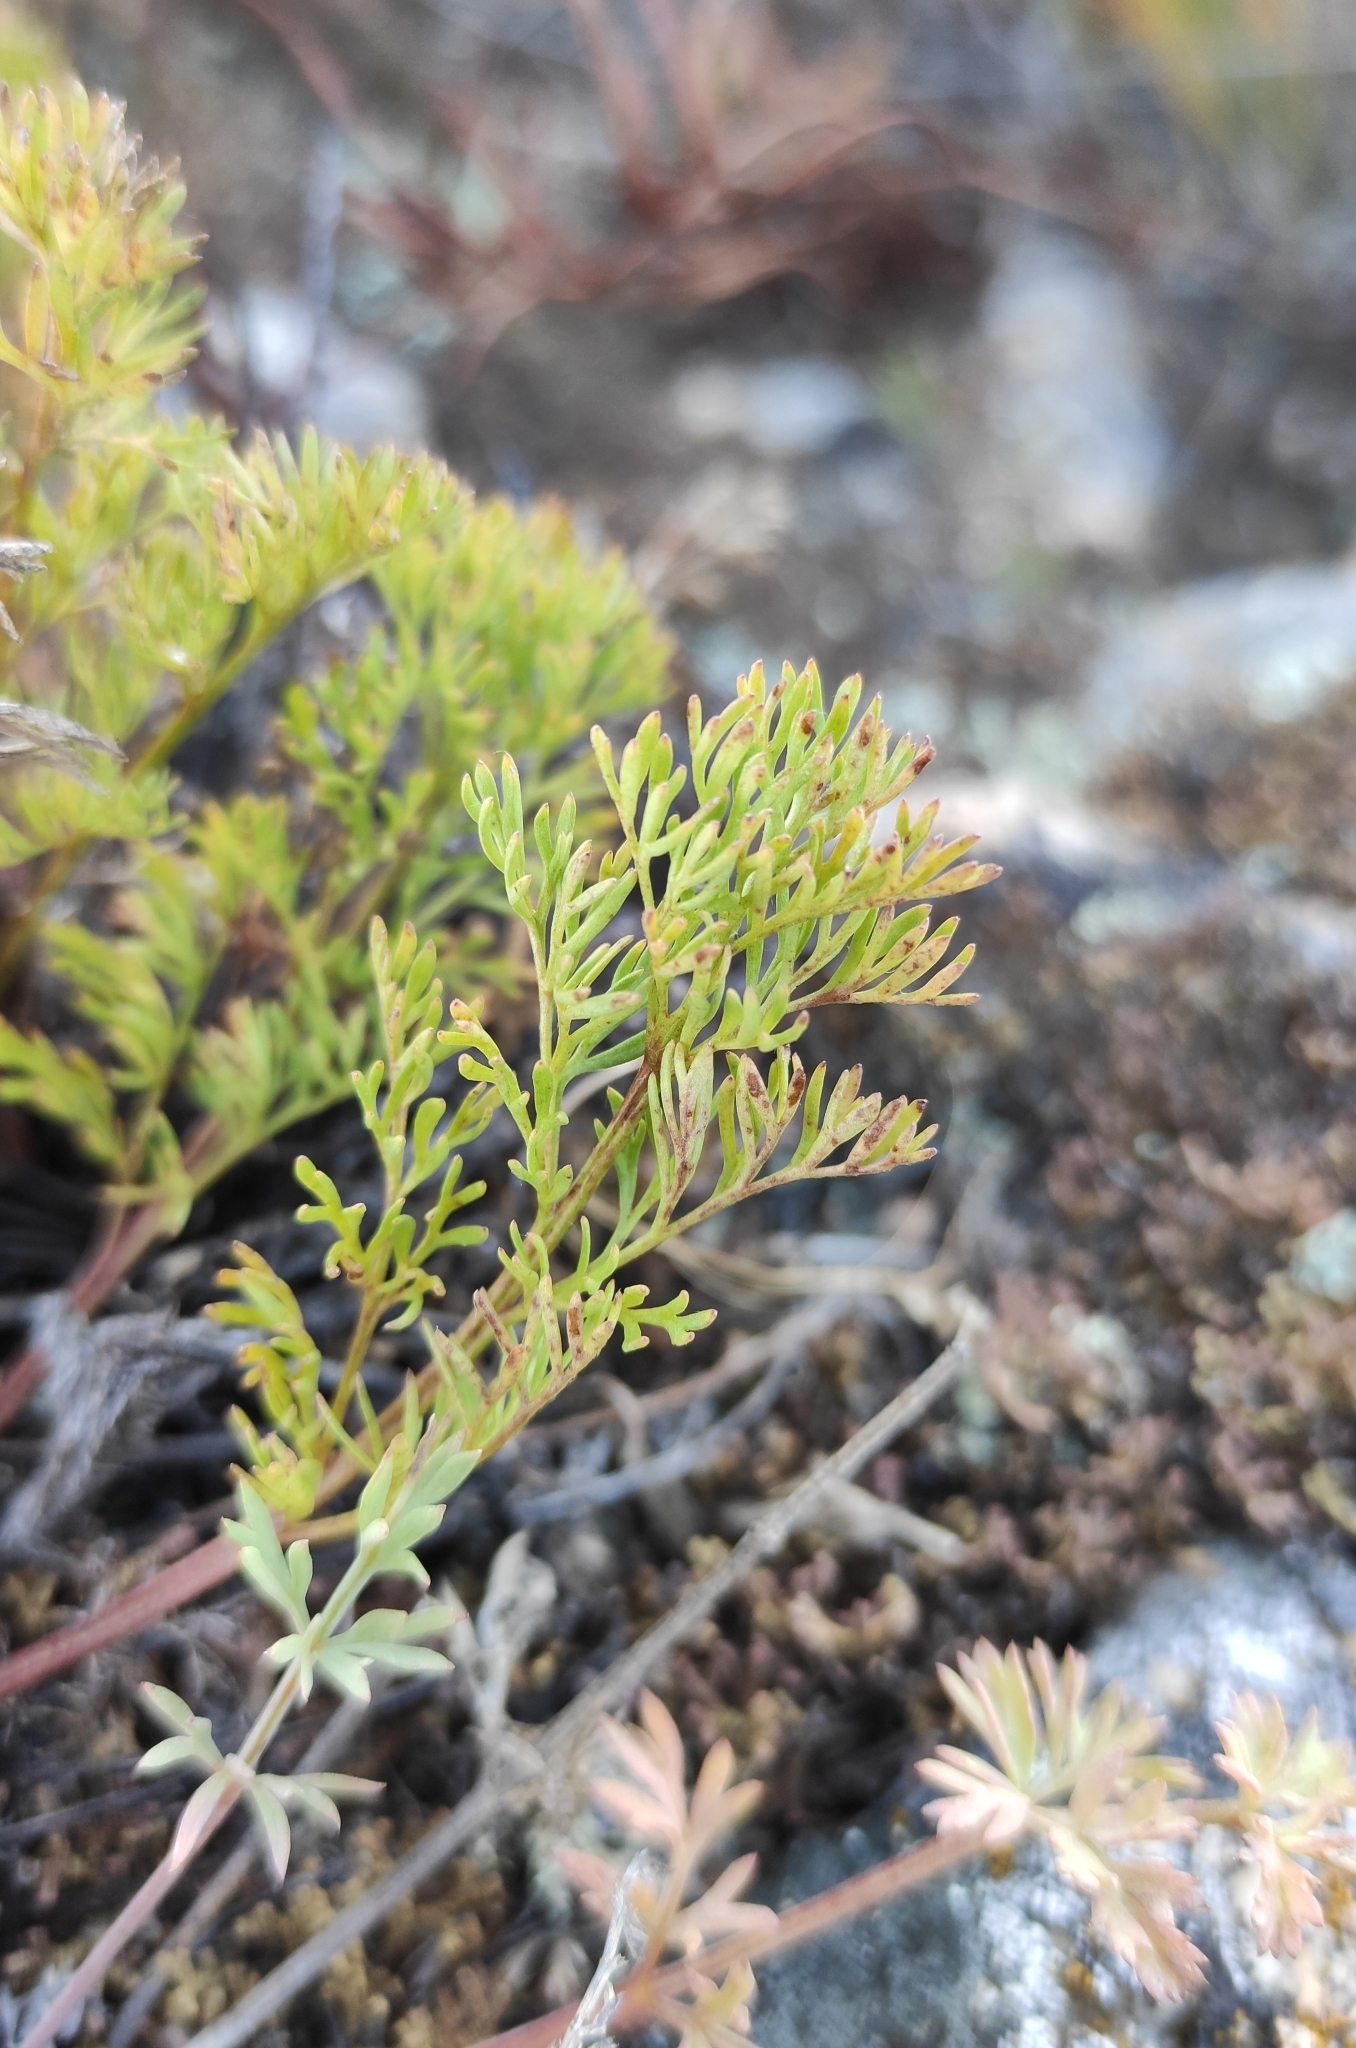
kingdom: Plantae
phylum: Tracheophyta
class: Magnoliopsida
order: Ranunculales
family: Ranunculaceae
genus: Pulsatilla
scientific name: Pulsatilla tenuiloba
